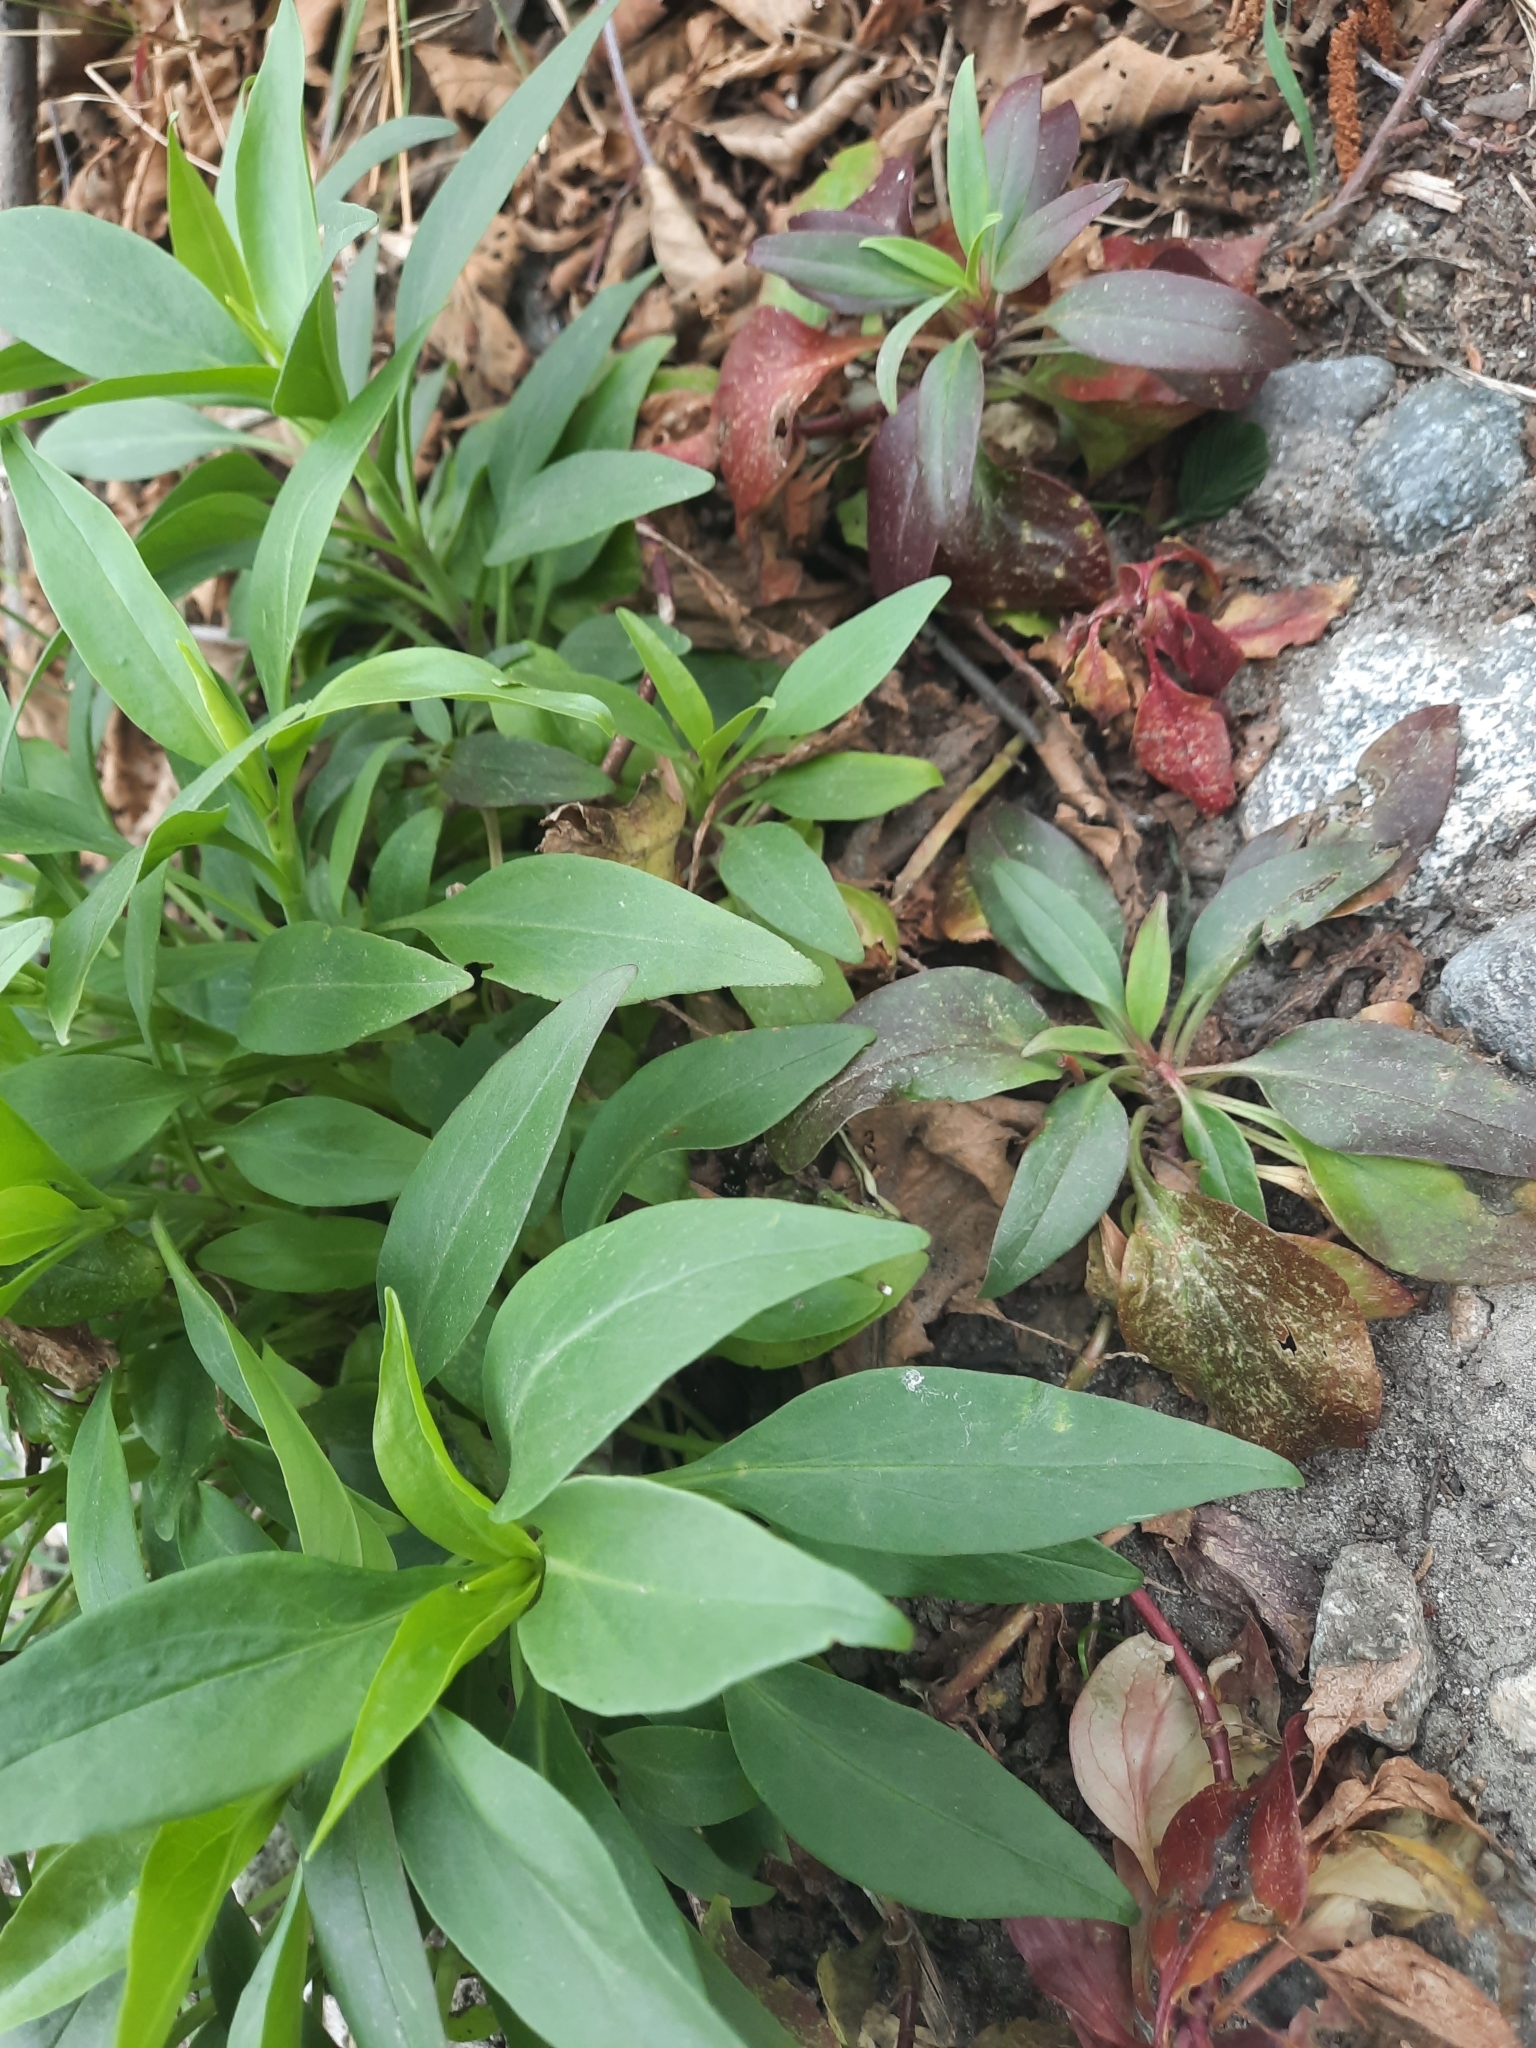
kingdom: Plantae
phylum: Tracheophyta
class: Magnoliopsida
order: Dipsacales
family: Caprifoliaceae
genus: Centranthus
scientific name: Centranthus ruber
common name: Red valerian
